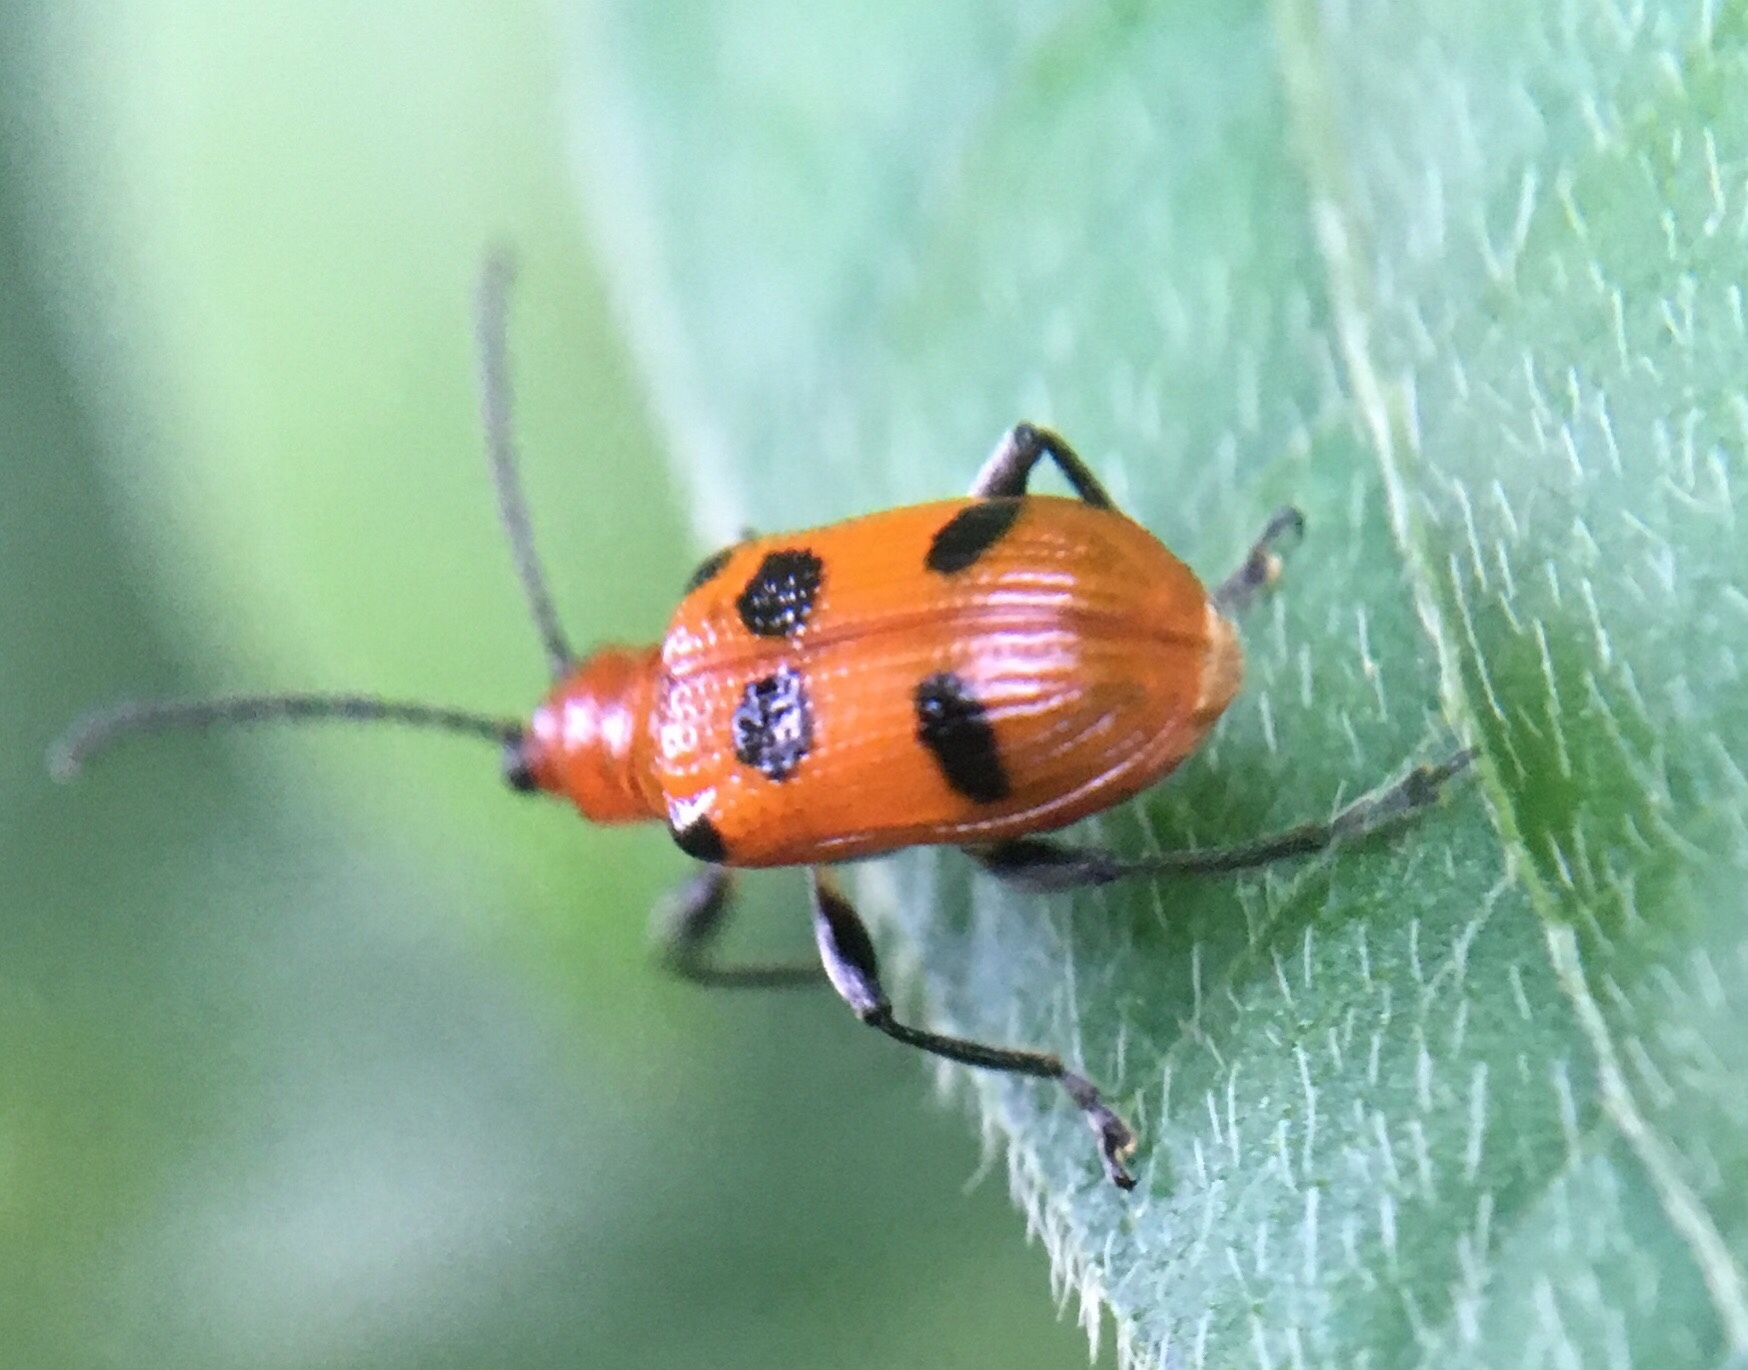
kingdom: Animalia
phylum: Arthropoda
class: Insecta
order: Coleoptera
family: Chrysomelidae
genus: Neolema
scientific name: Neolema sexpunctata
